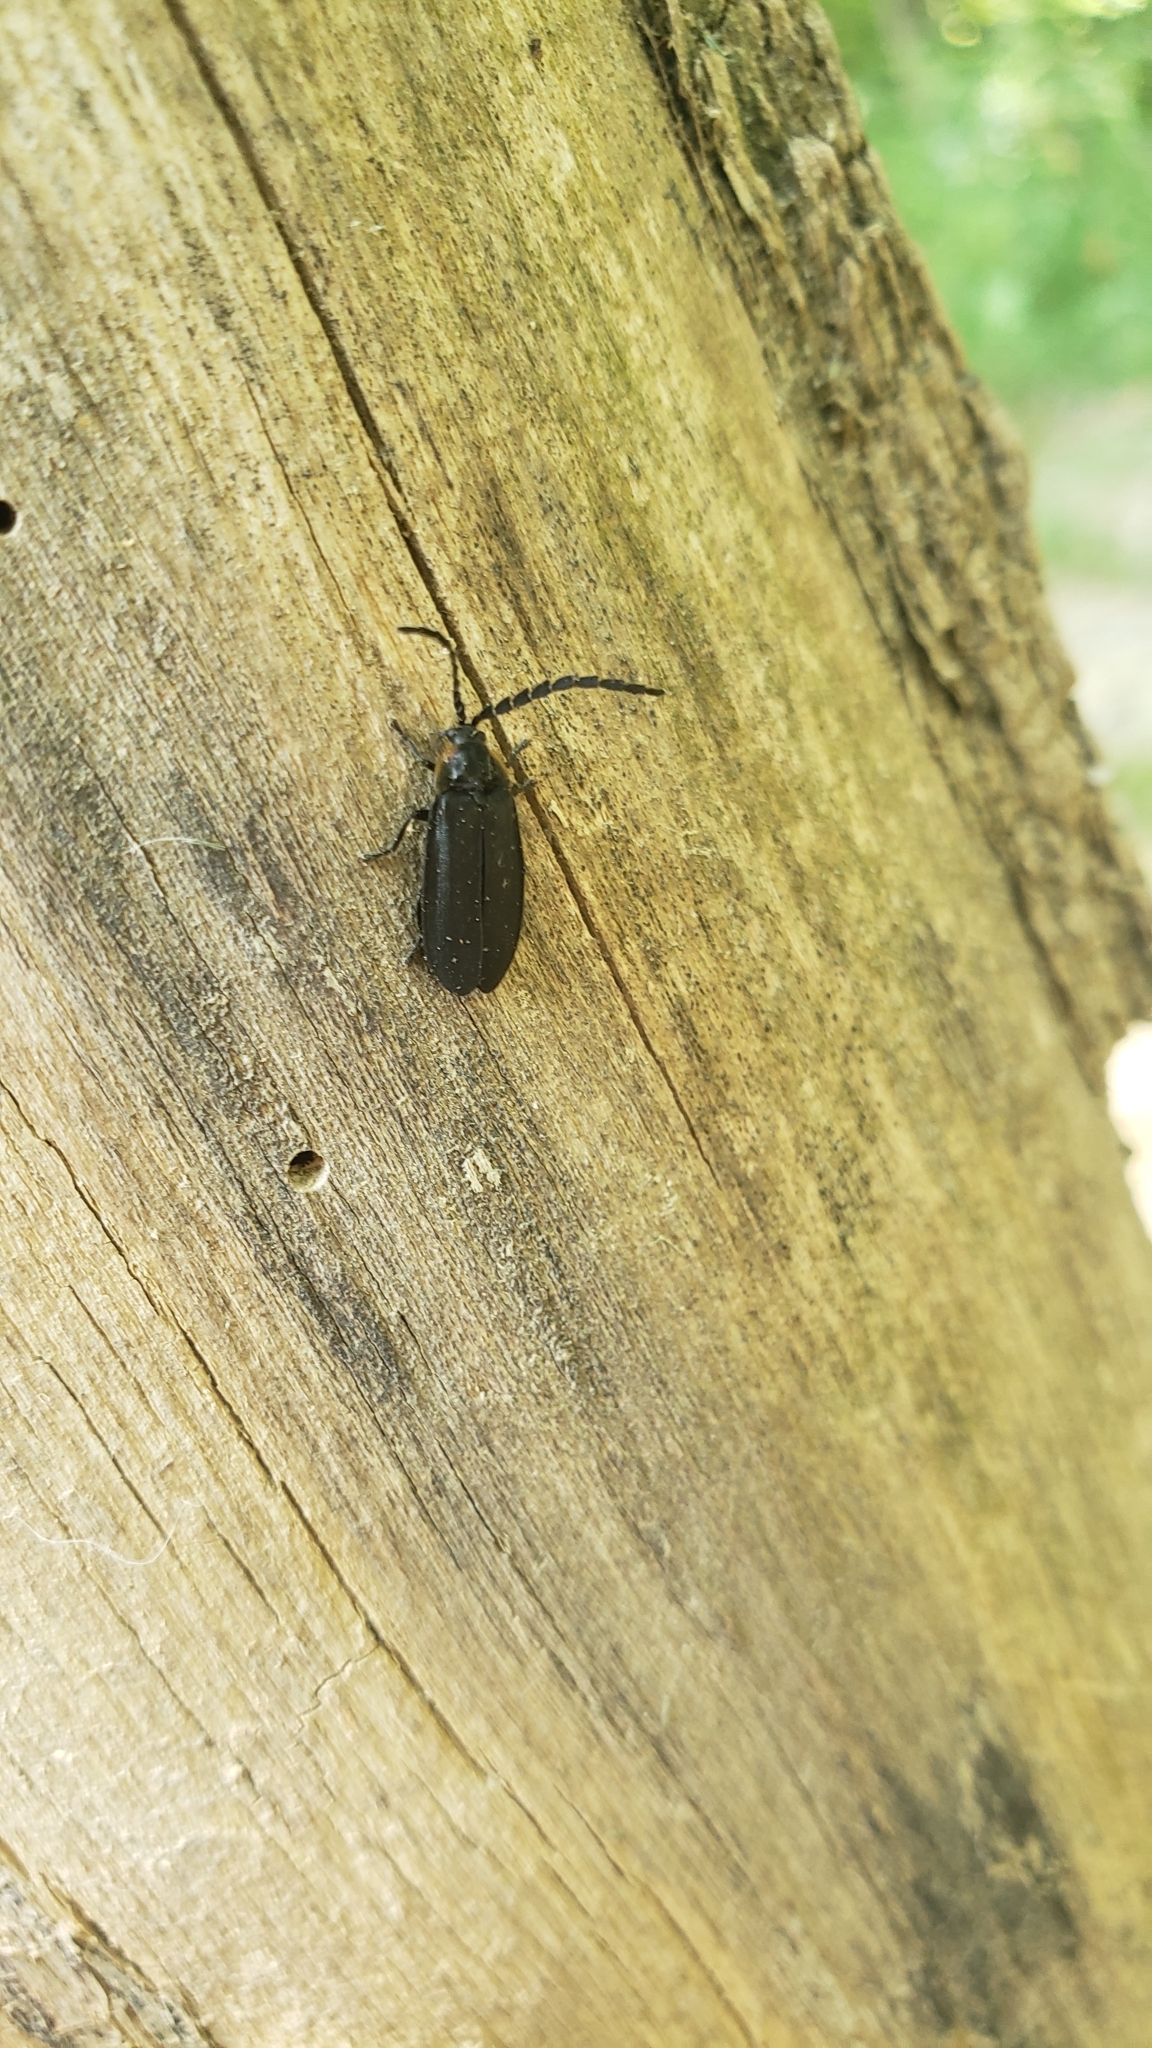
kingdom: Animalia
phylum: Arthropoda
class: Insecta
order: Coleoptera
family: Lampyridae
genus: Lucidota
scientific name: Lucidota atra
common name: Black firefly
